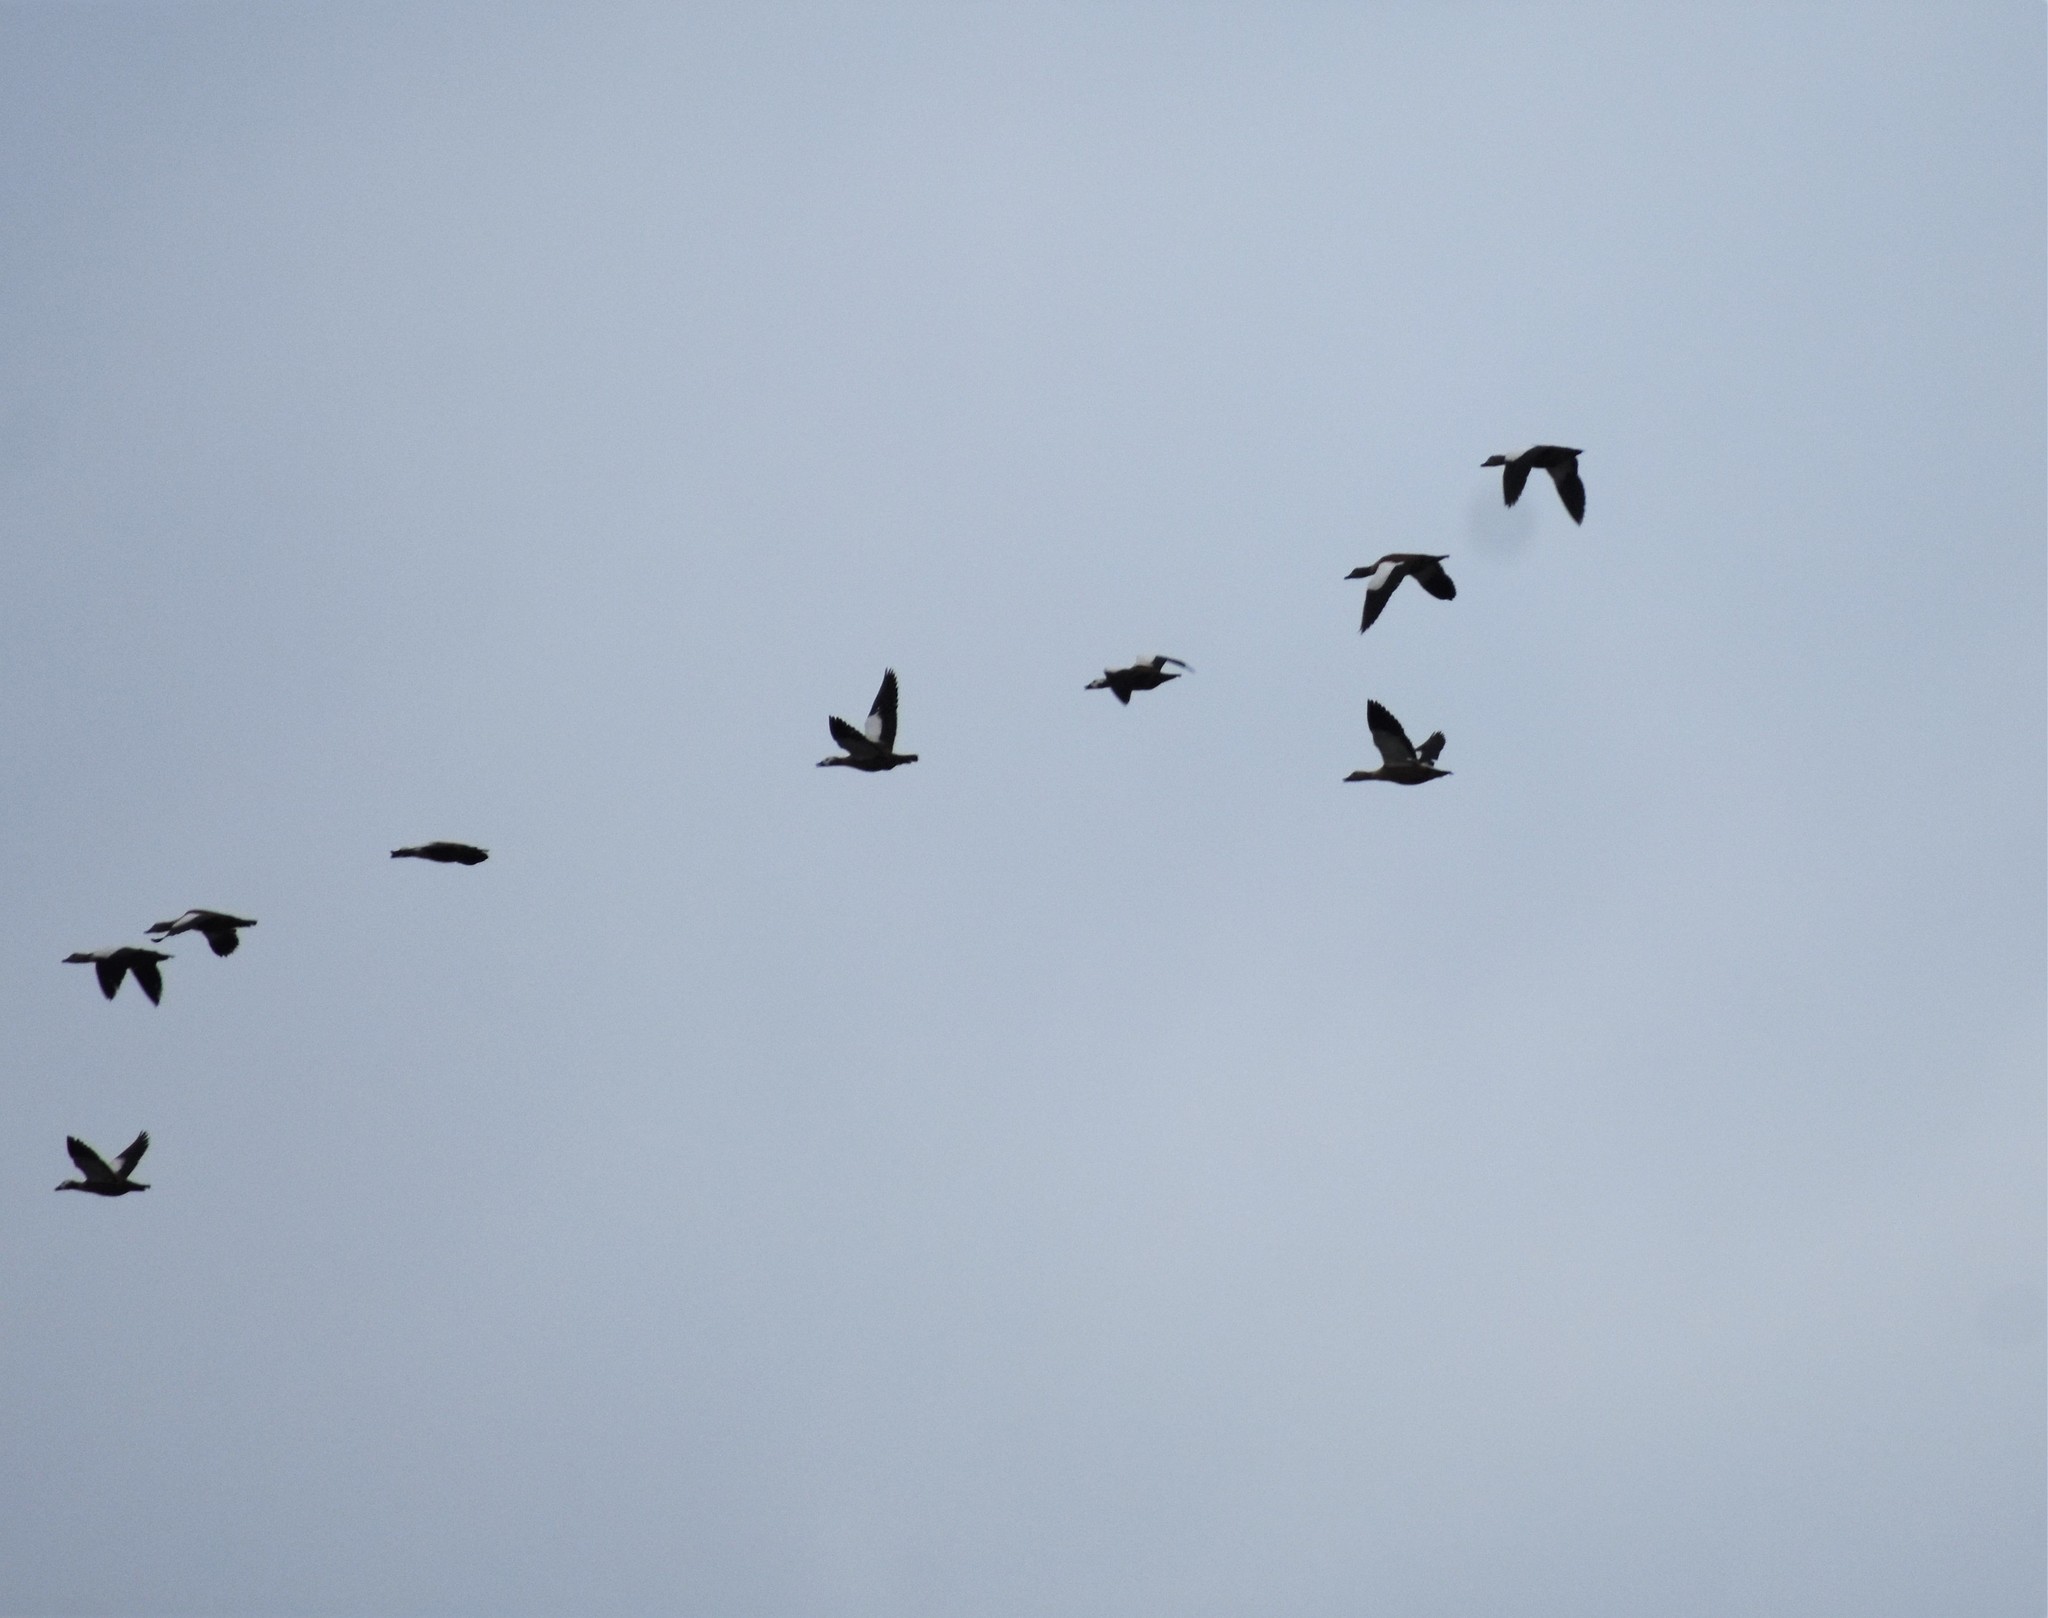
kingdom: Animalia
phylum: Chordata
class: Aves
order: Anseriformes
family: Anatidae
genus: Tadorna
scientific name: Tadorna cana
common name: South african shelduck
